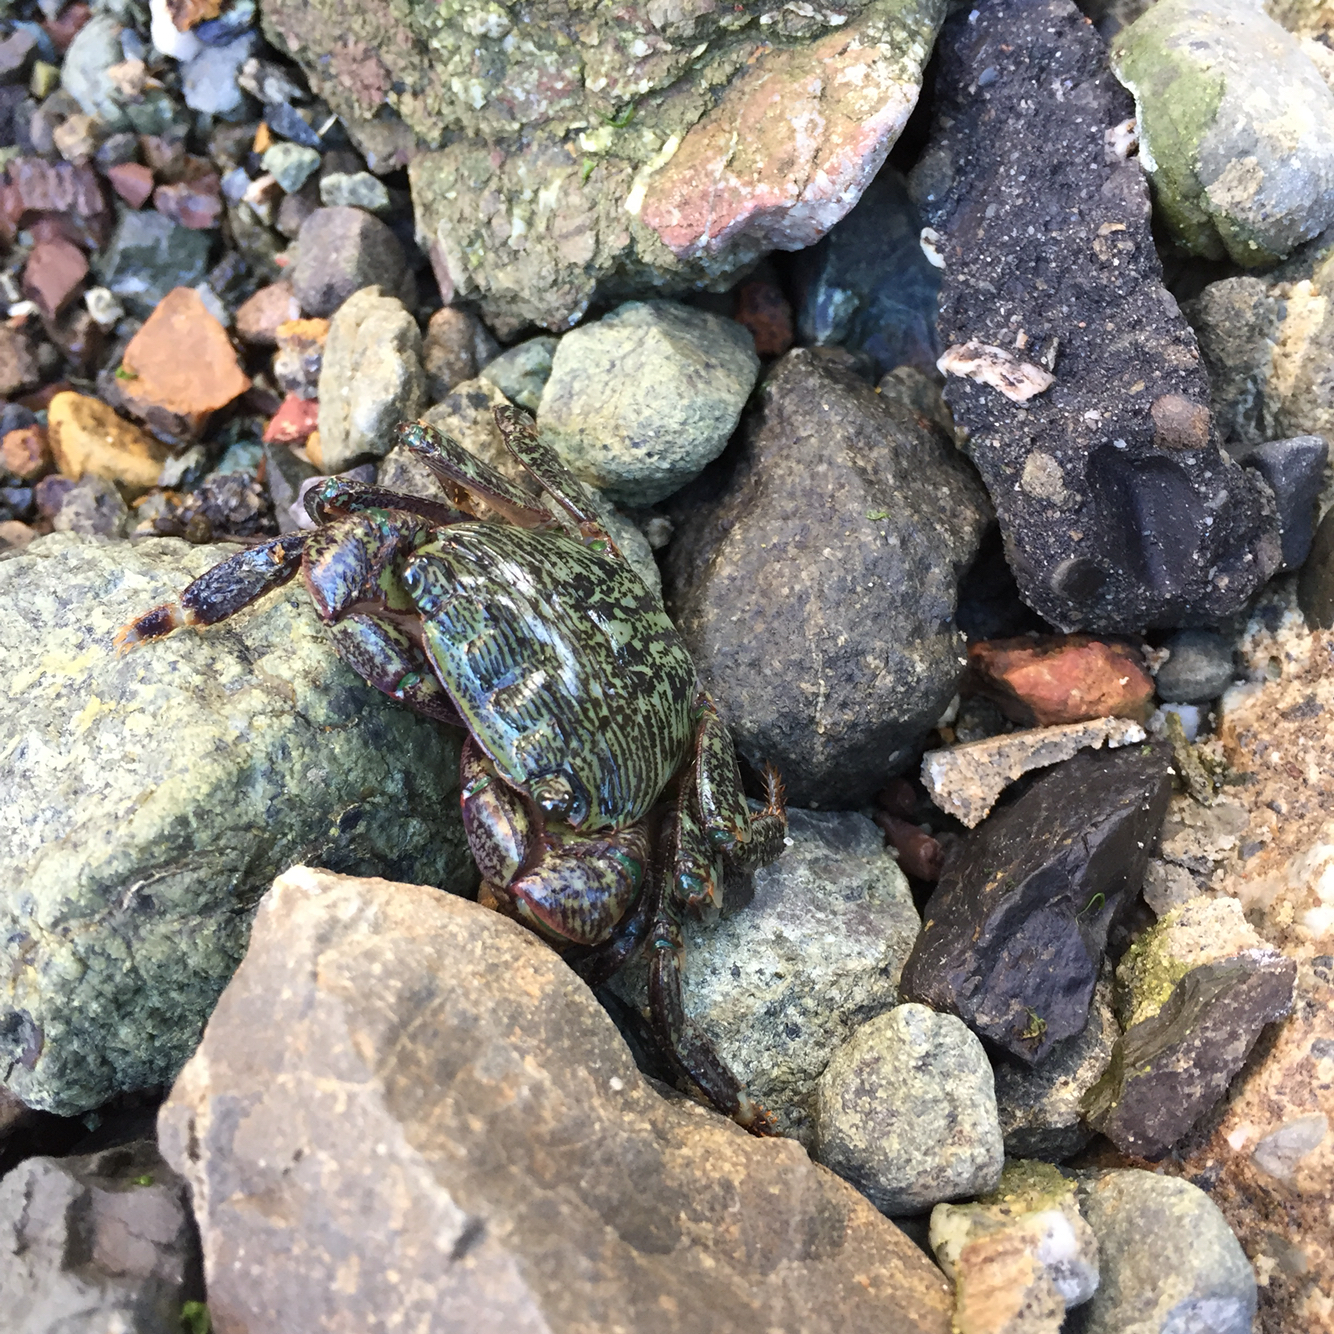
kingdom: Animalia
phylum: Arthropoda
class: Malacostraca
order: Decapoda
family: Grapsidae
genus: Pachygrapsus
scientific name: Pachygrapsus crassipes
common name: Striped shore crab
